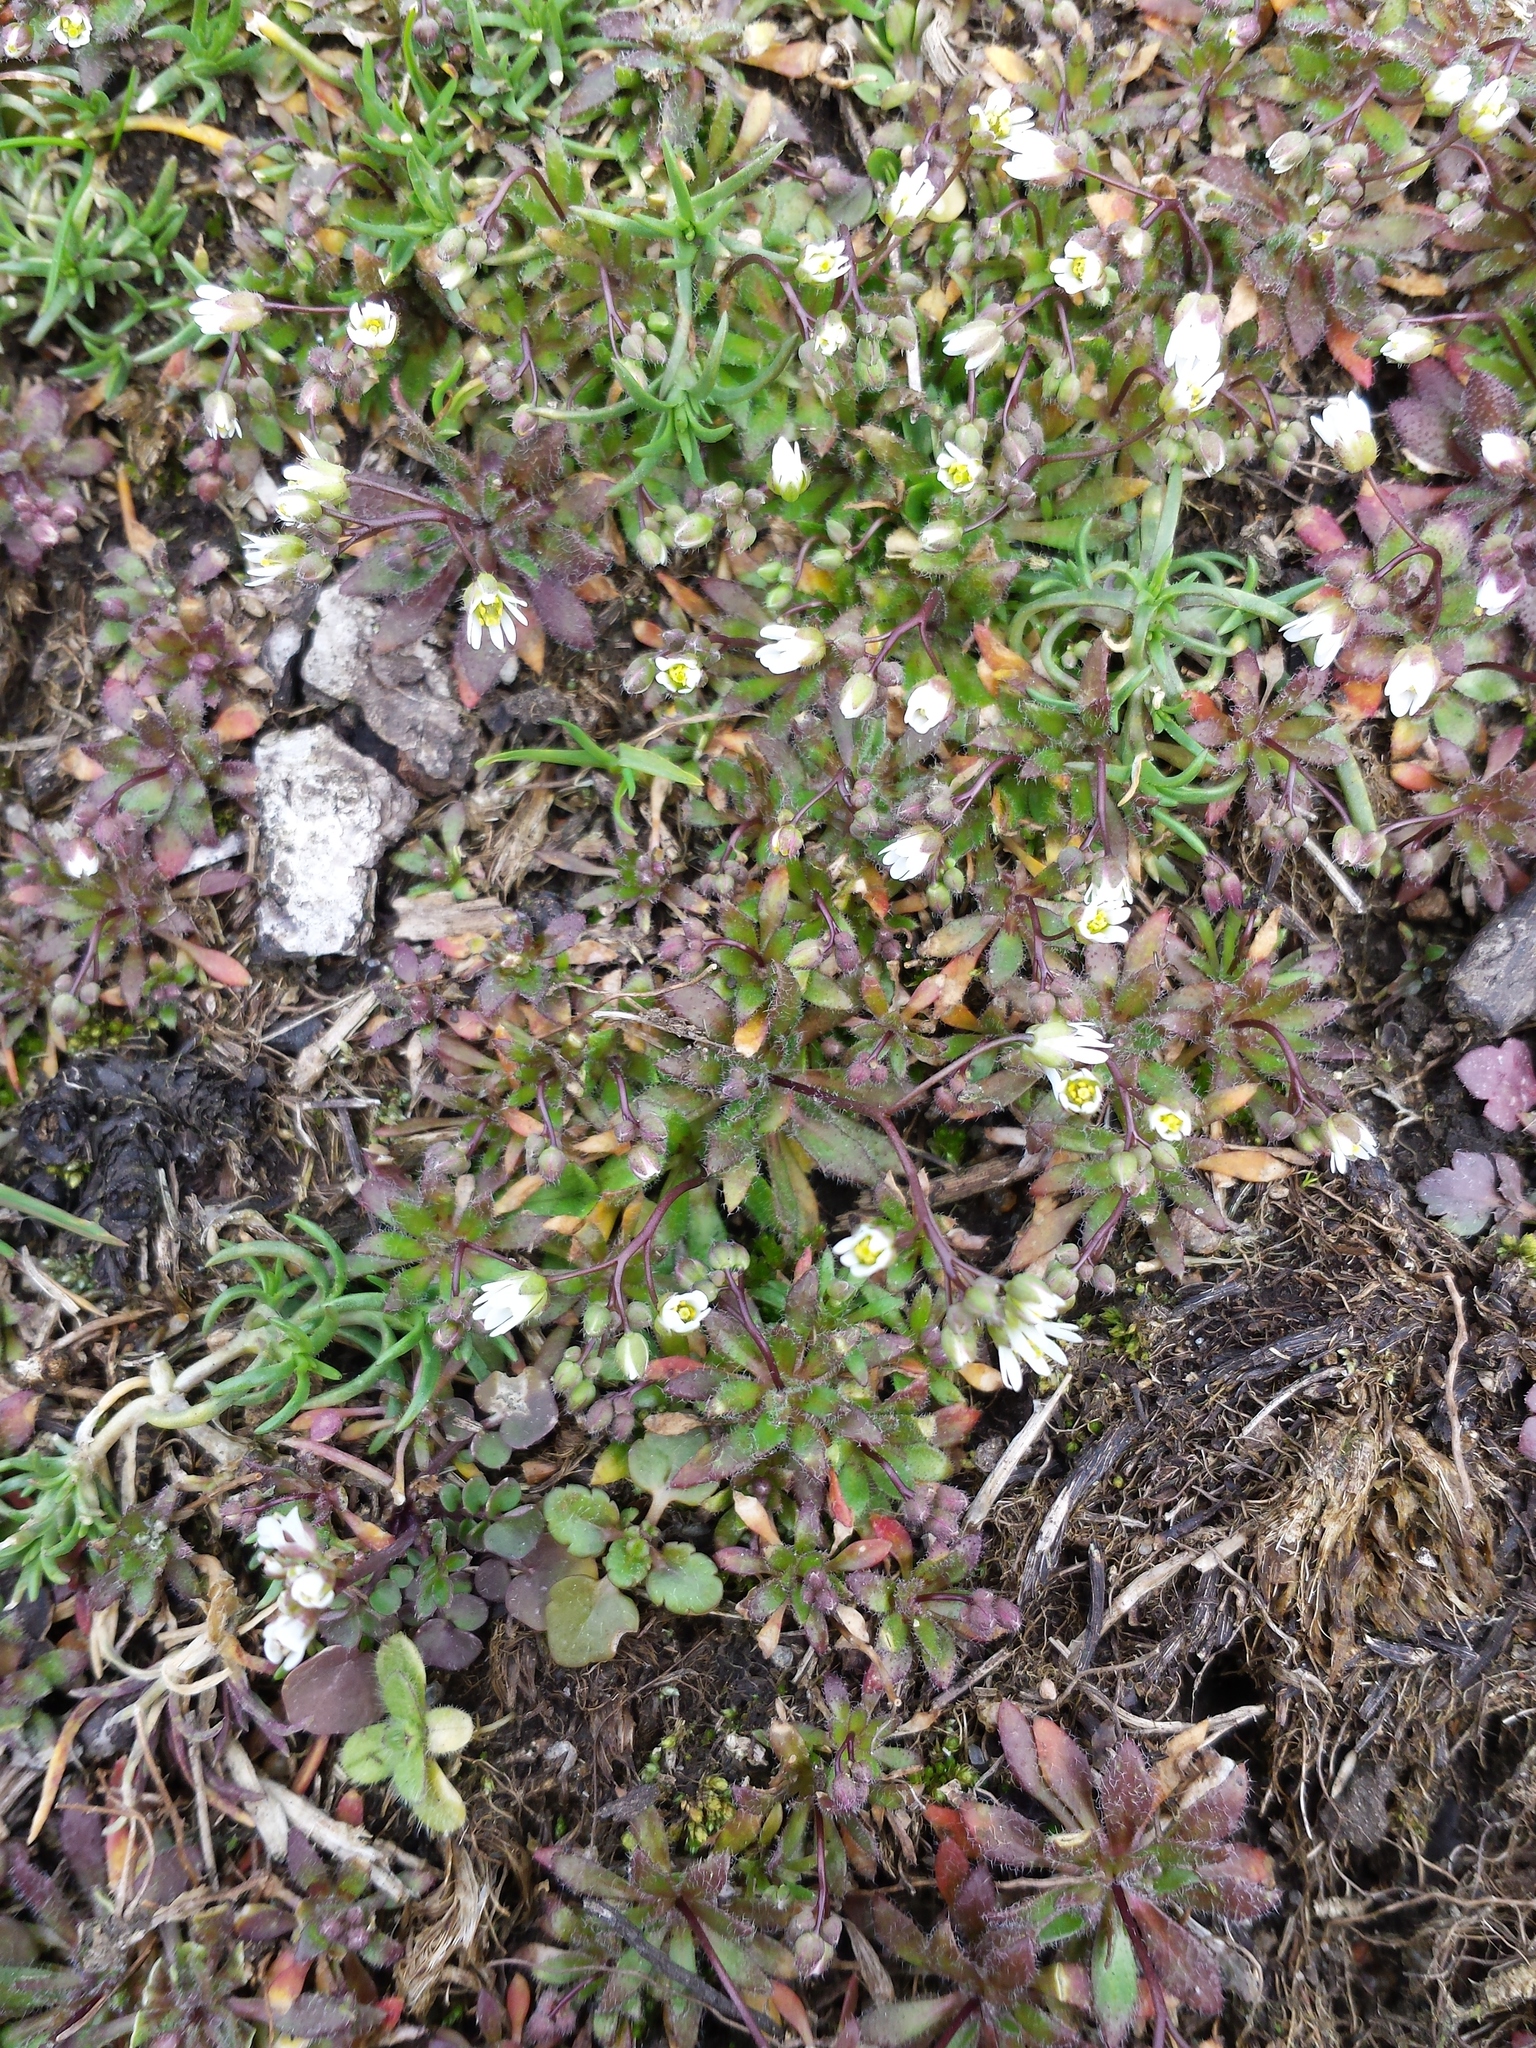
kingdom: Plantae
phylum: Tracheophyta
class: Magnoliopsida
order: Brassicales
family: Brassicaceae
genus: Draba
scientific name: Draba verna
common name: Spring draba
